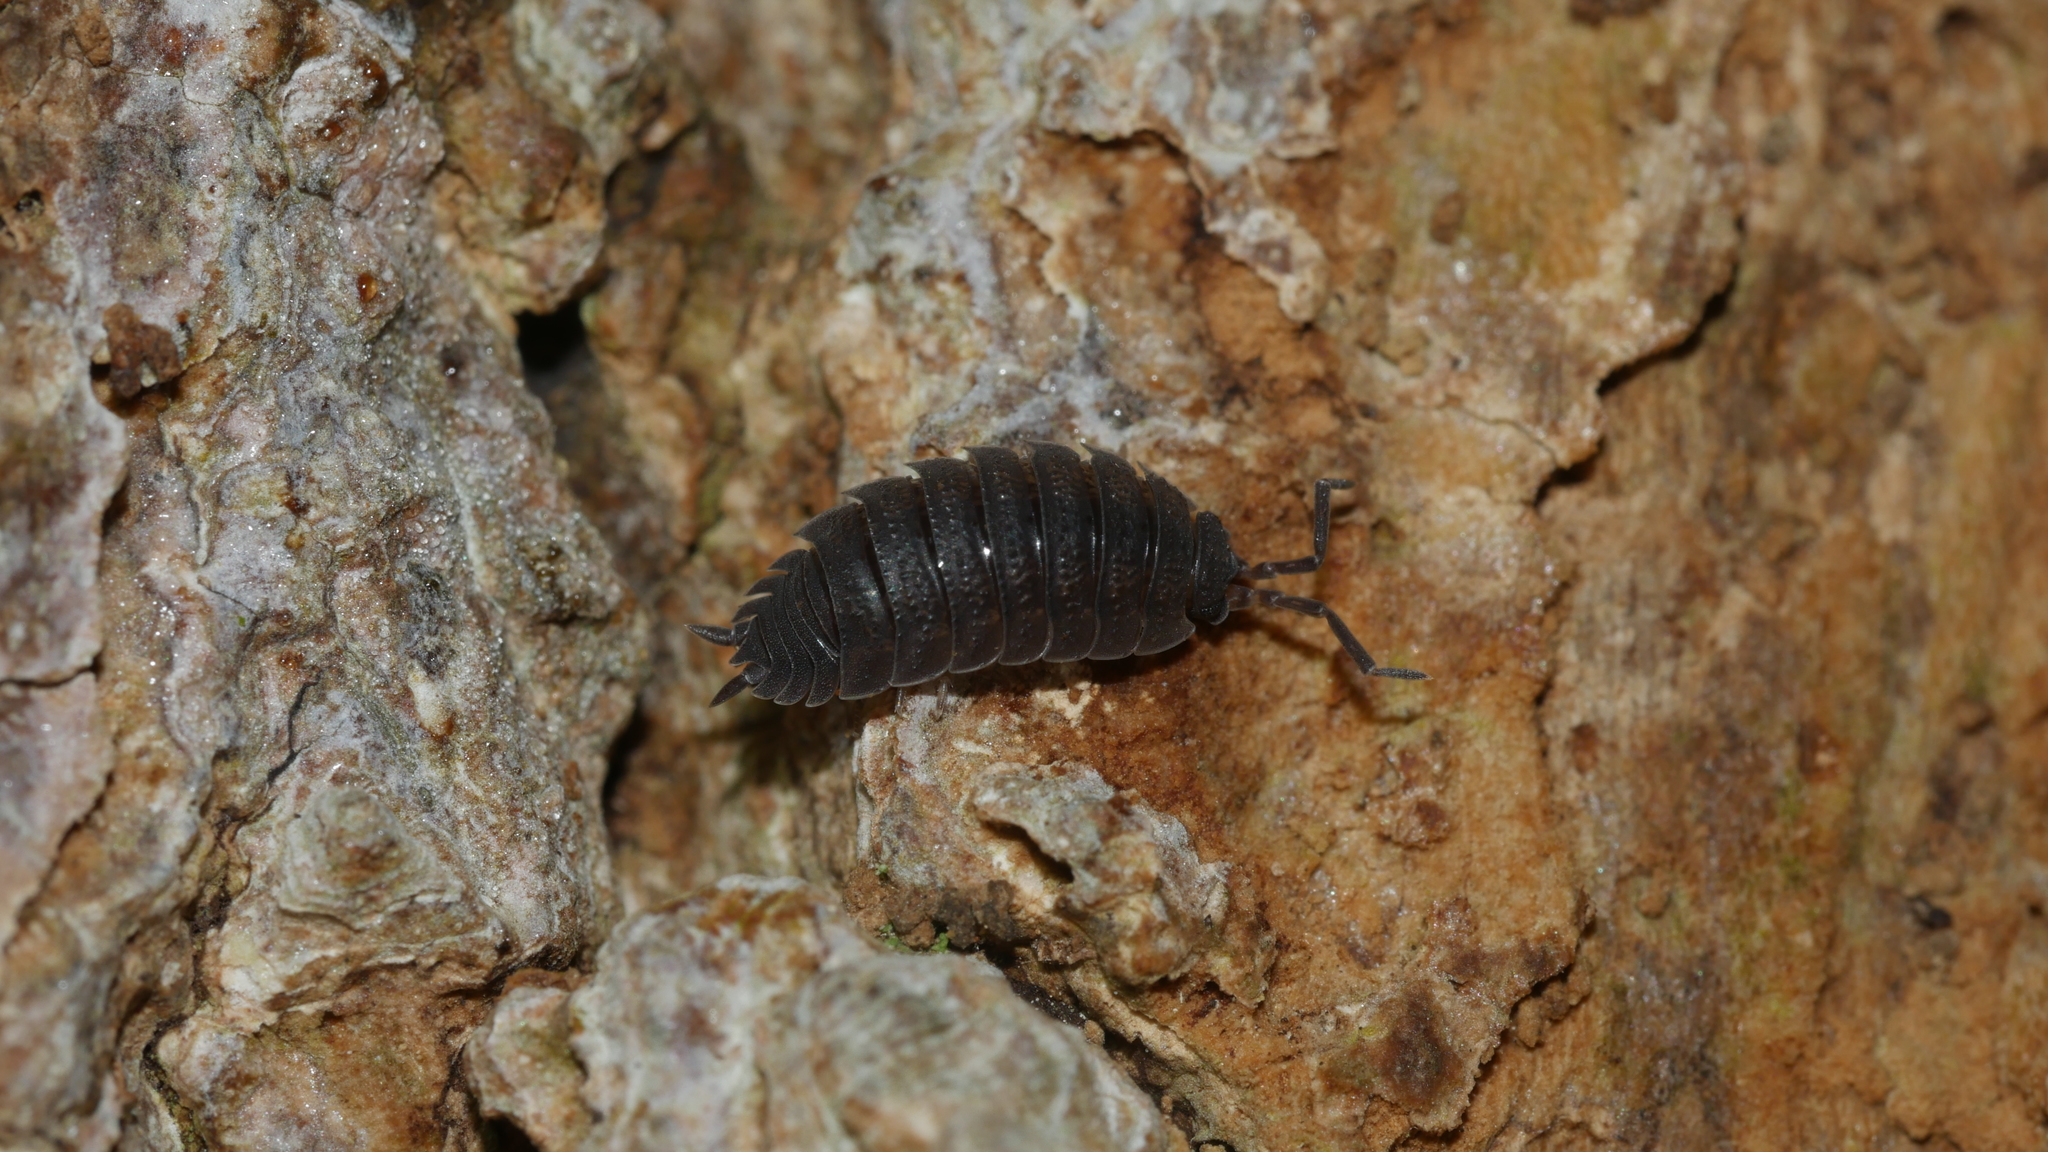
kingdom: Animalia
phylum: Arthropoda
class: Malacostraca
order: Isopoda
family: Porcellionidae
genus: Porcellio
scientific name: Porcellio scaber
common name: Common rough woodlouse
